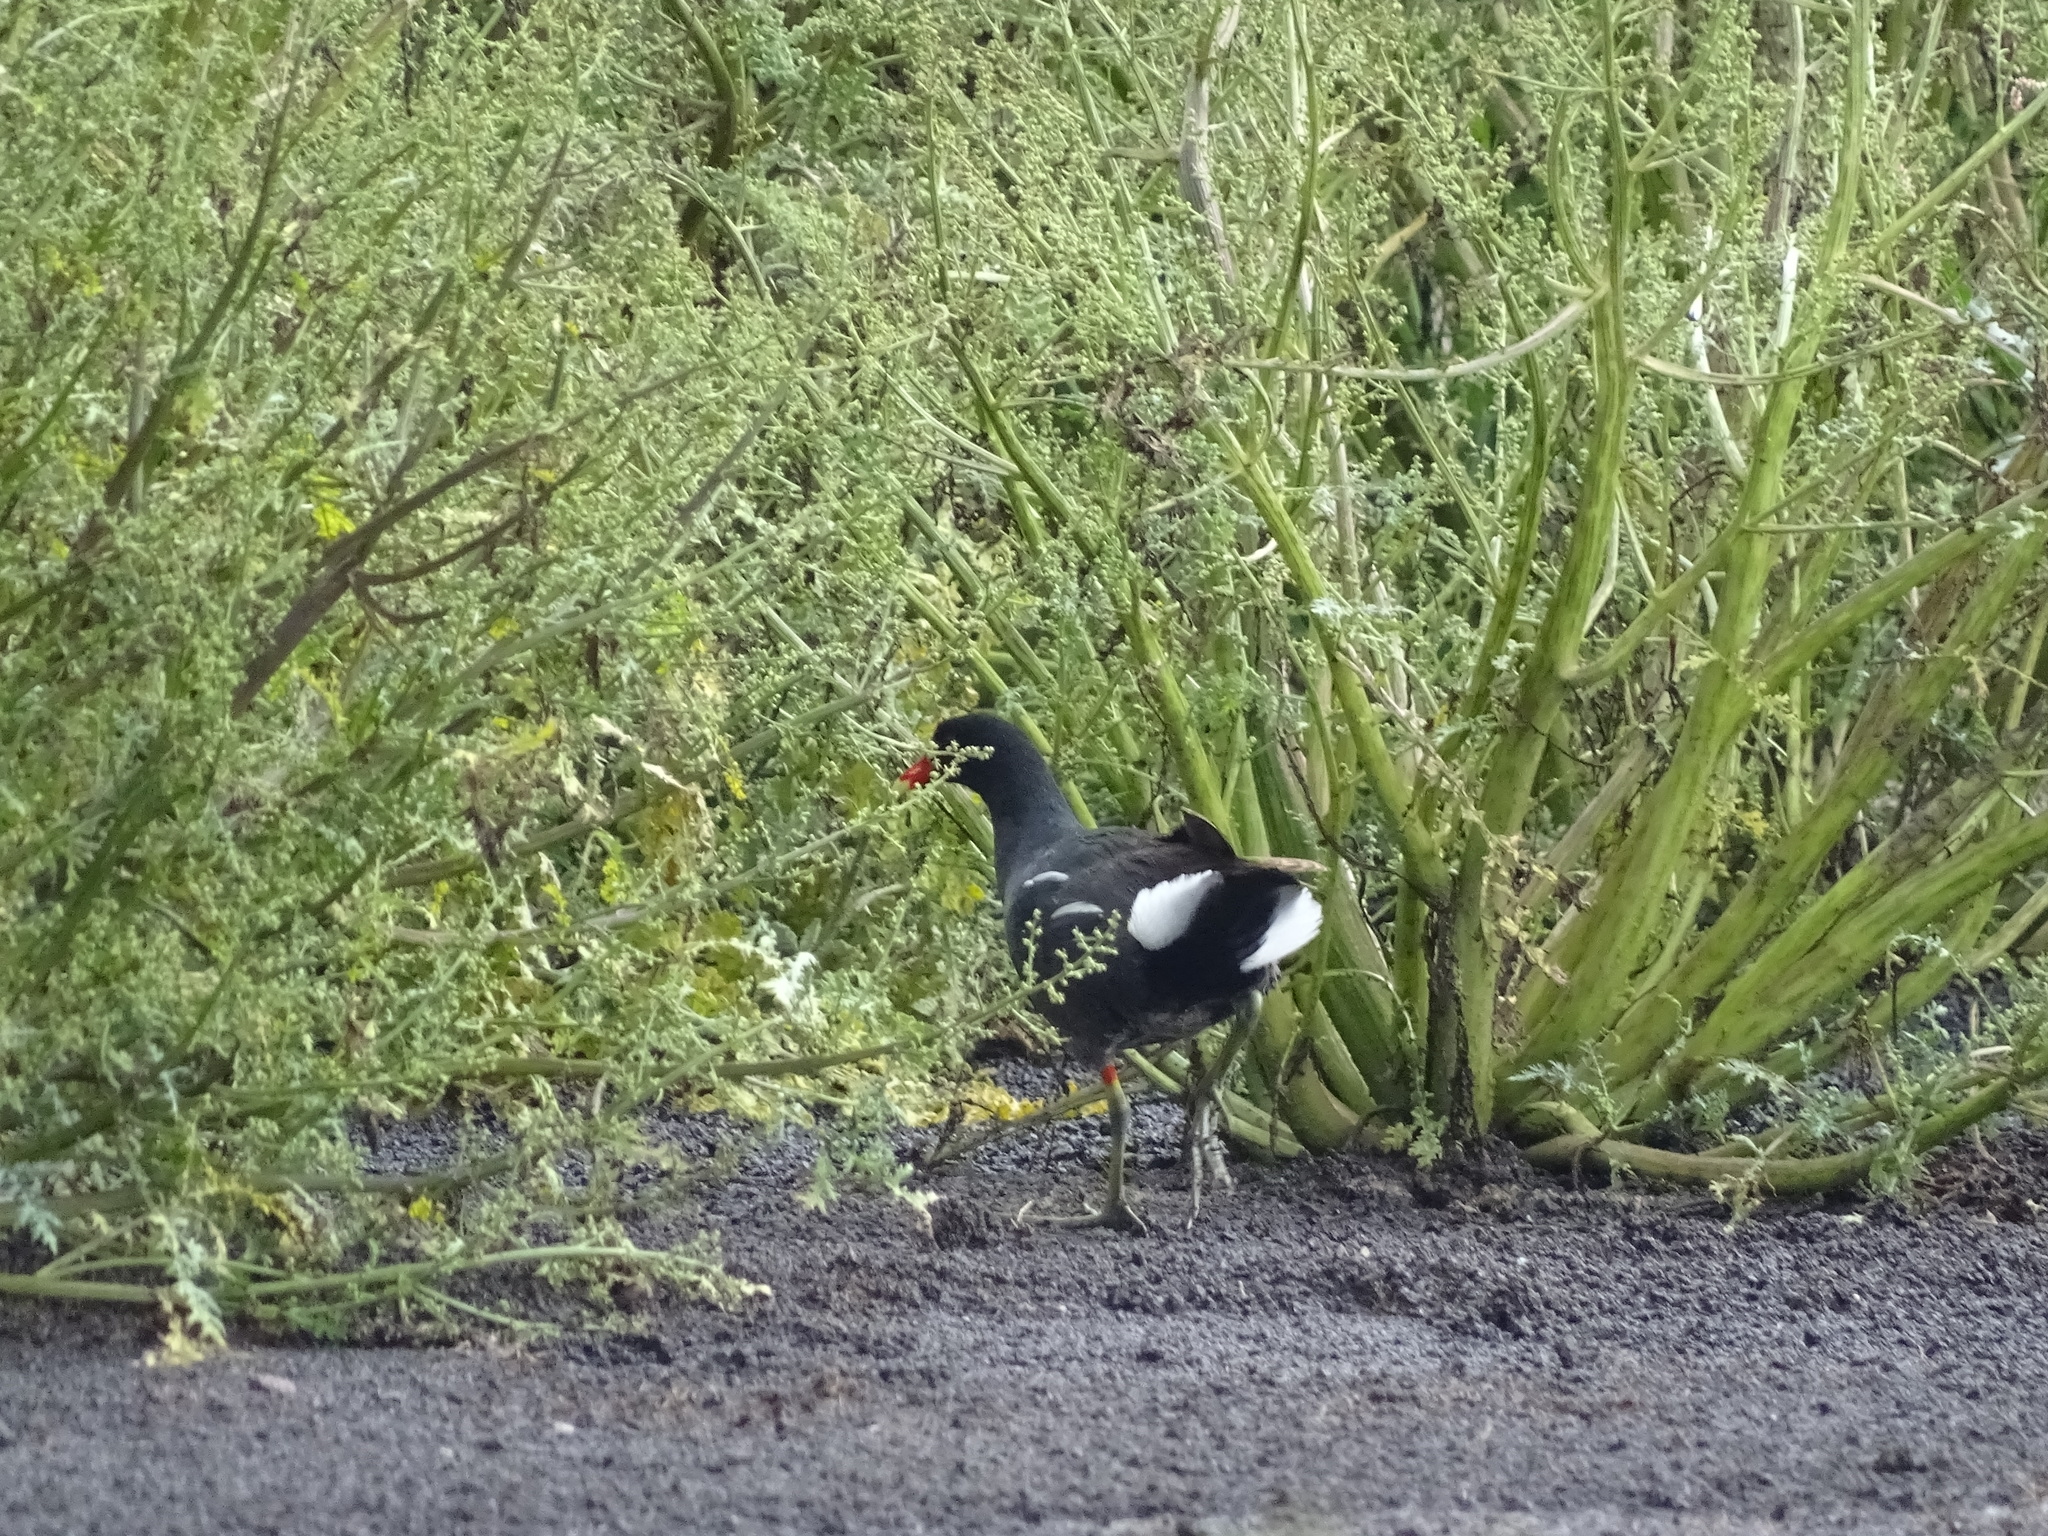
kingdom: Animalia
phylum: Chordata
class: Aves
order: Gruiformes
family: Rallidae
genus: Gallinula
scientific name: Gallinula chloropus
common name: Common moorhen
